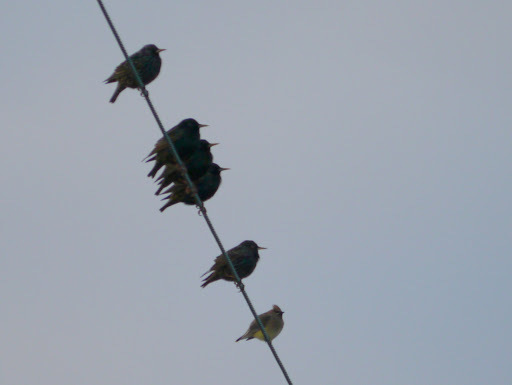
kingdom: Animalia
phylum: Chordata
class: Aves
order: Passeriformes
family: Sturnidae
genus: Sturnus
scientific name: Sturnus vulgaris
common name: Common starling
